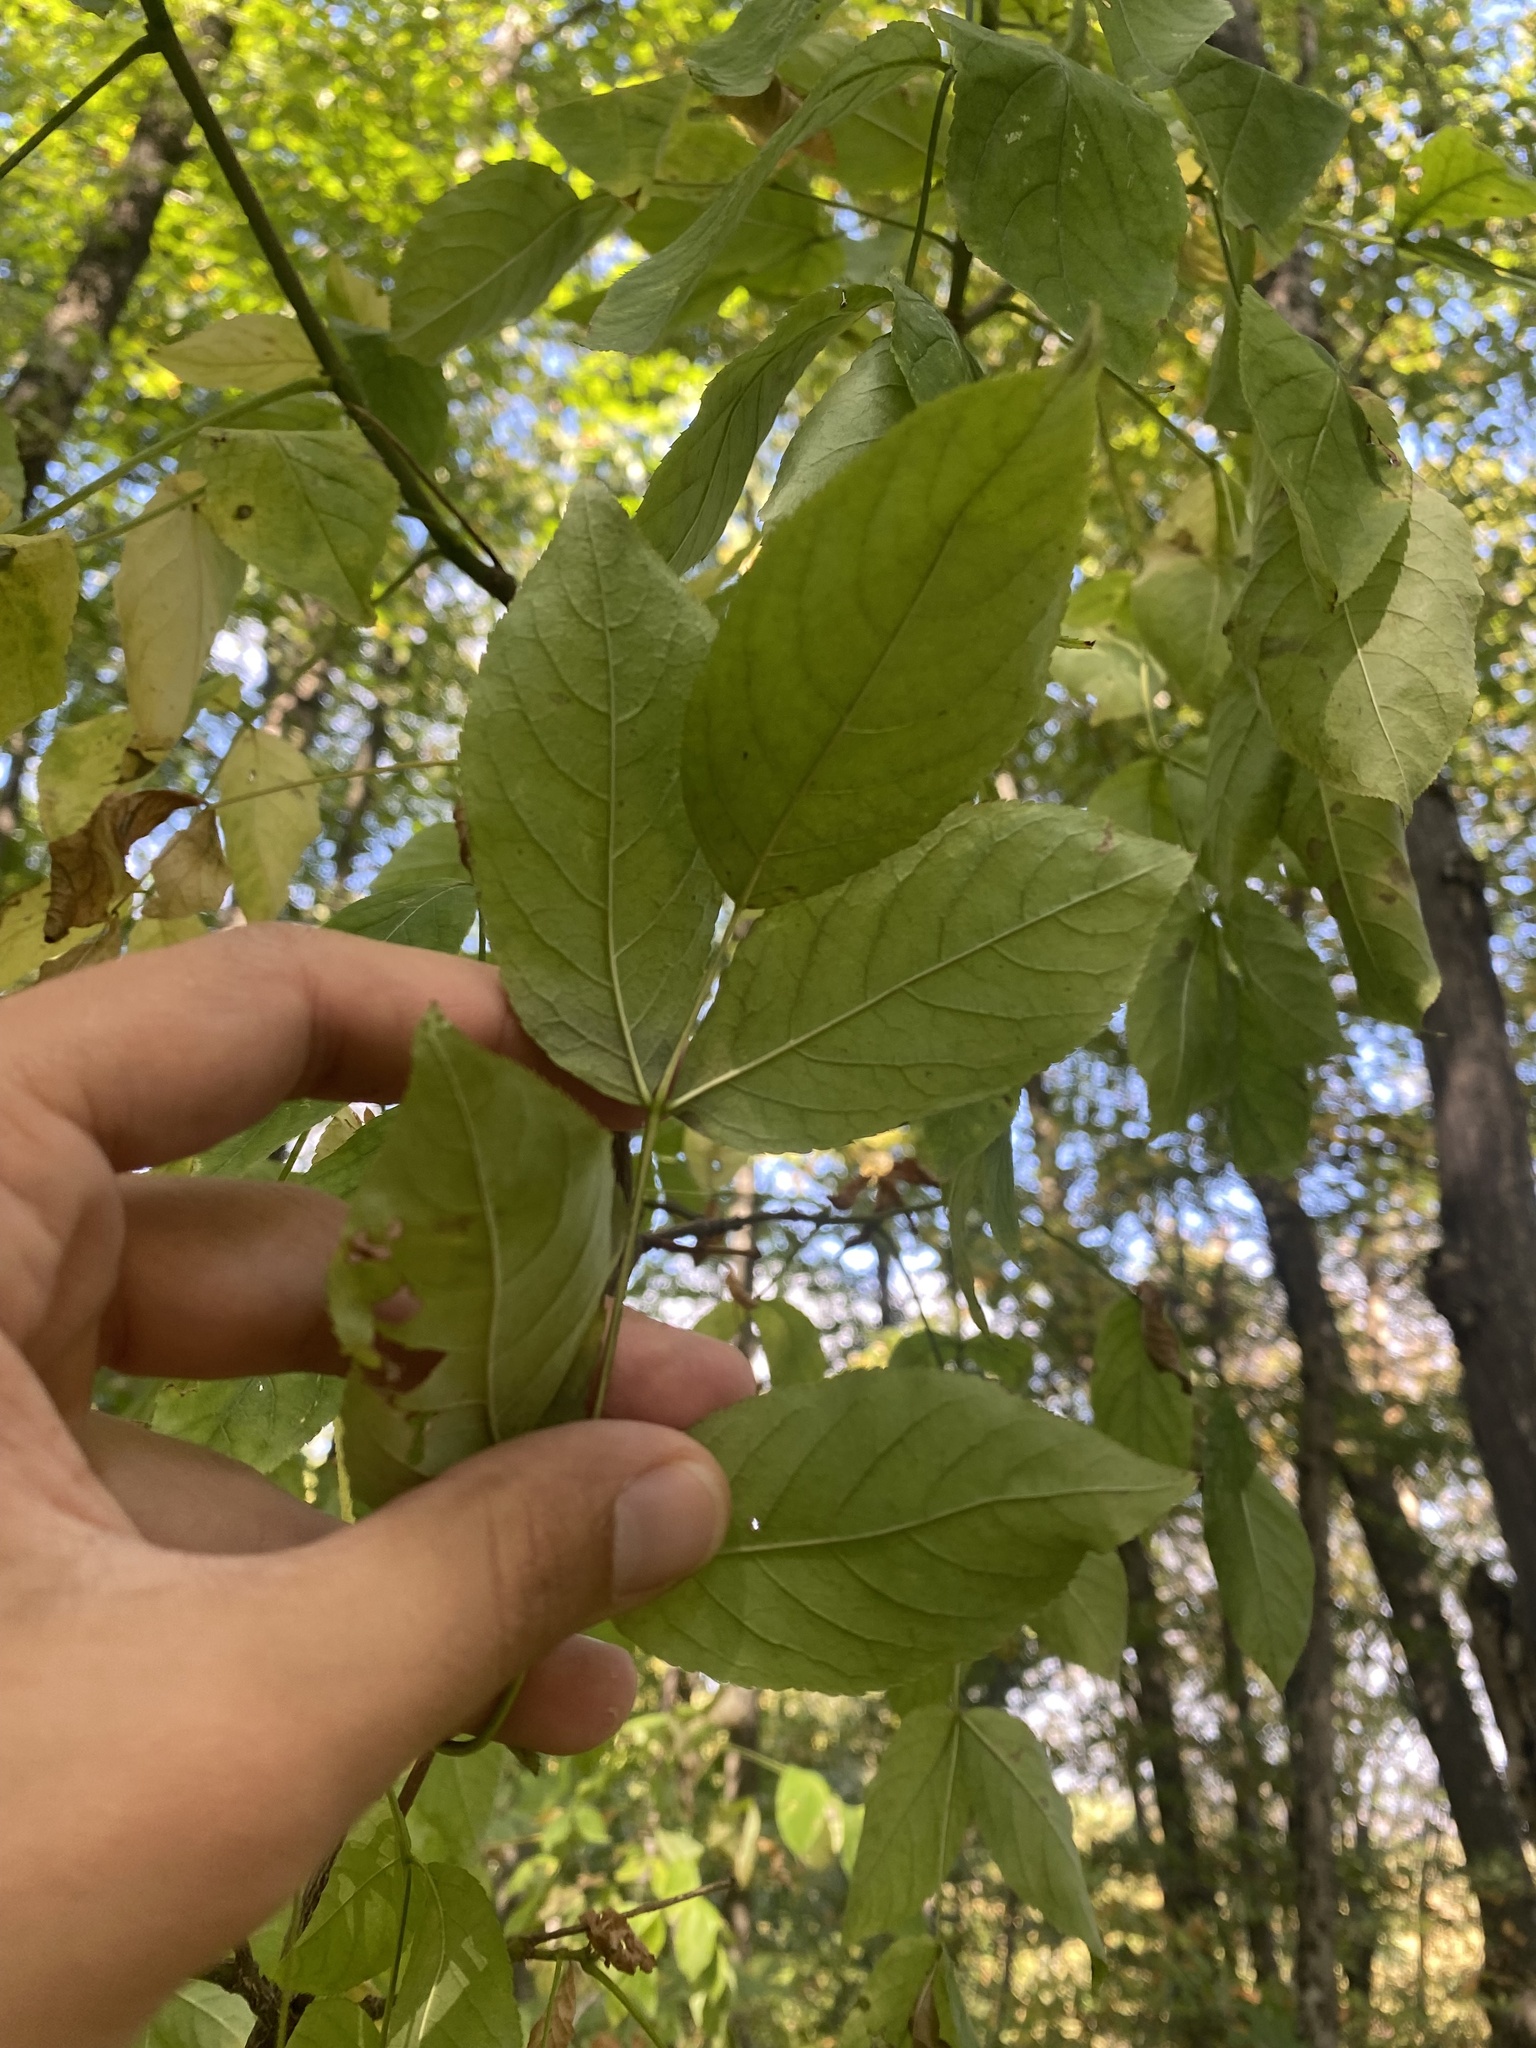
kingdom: Plantae
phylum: Tracheophyta
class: Magnoliopsida
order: Crossosomatales
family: Staphyleaceae
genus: Staphylea
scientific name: Staphylea pinnata
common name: Bladdernut
